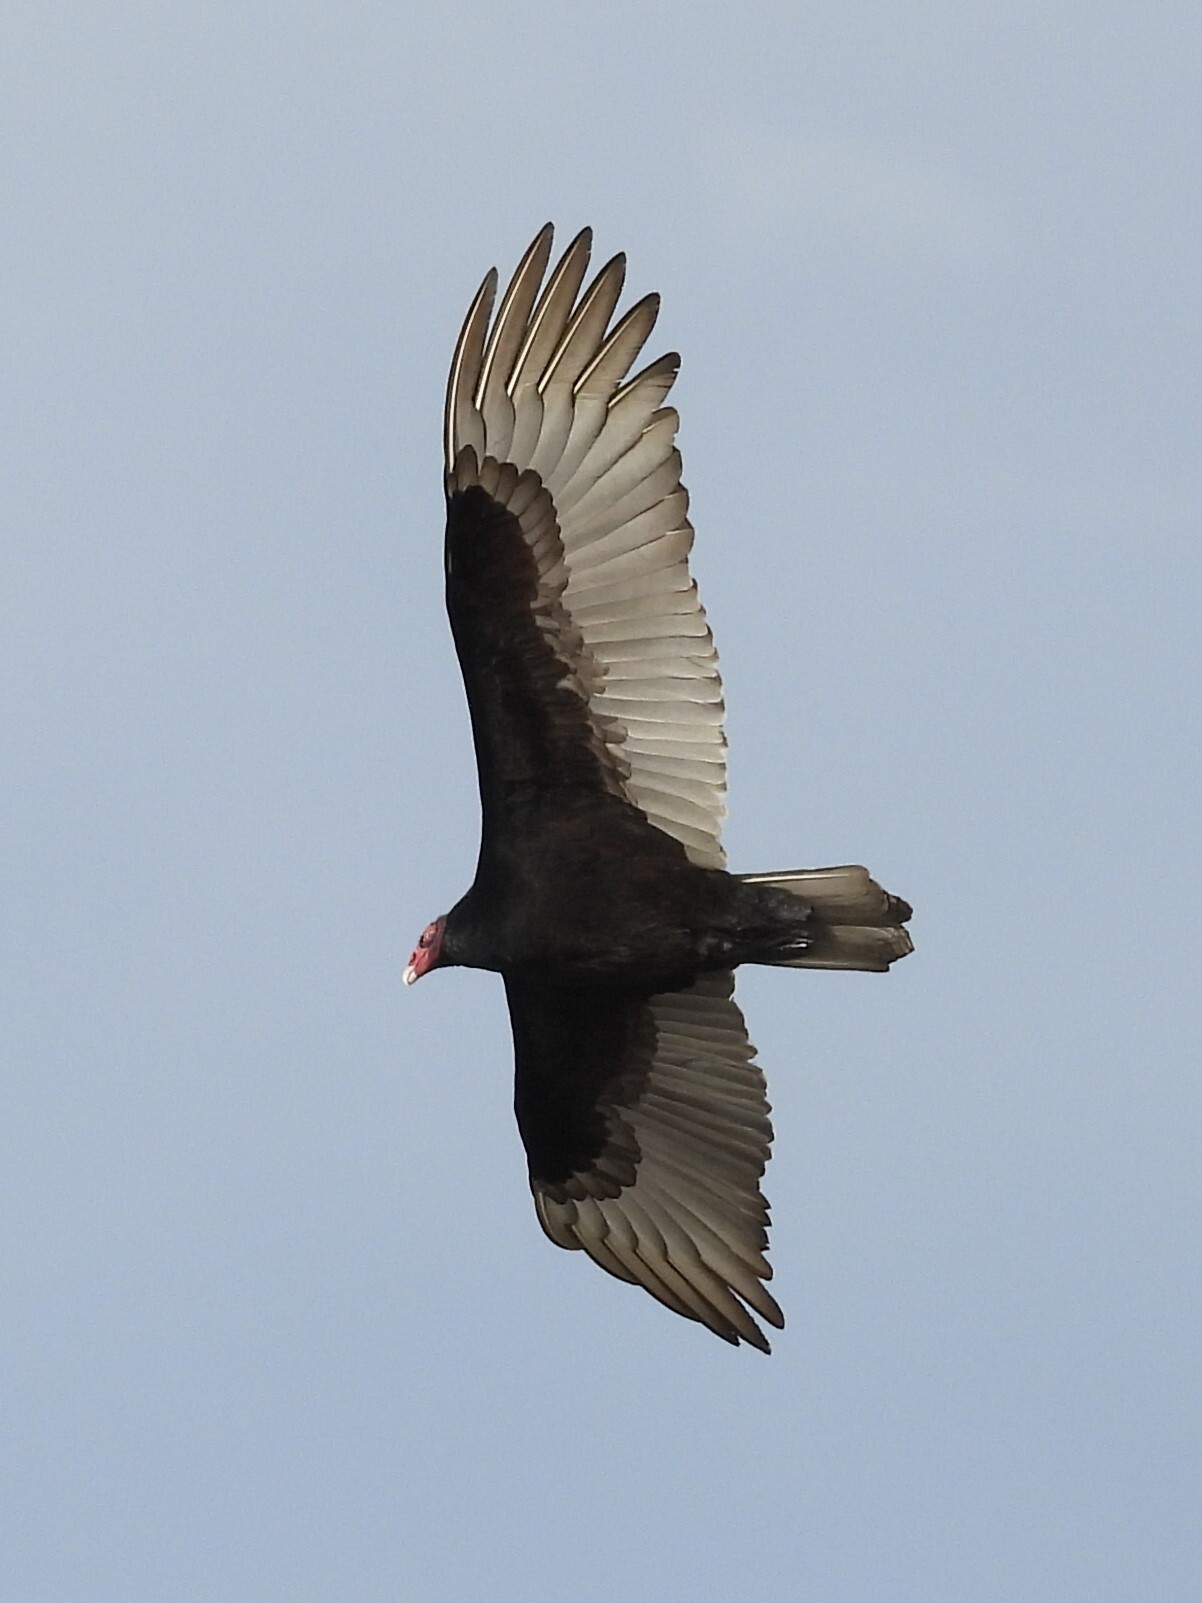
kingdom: Animalia
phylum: Chordata
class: Aves
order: Accipitriformes
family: Cathartidae
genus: Cathartes
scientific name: Cathartes aura
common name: Turkey vulture
